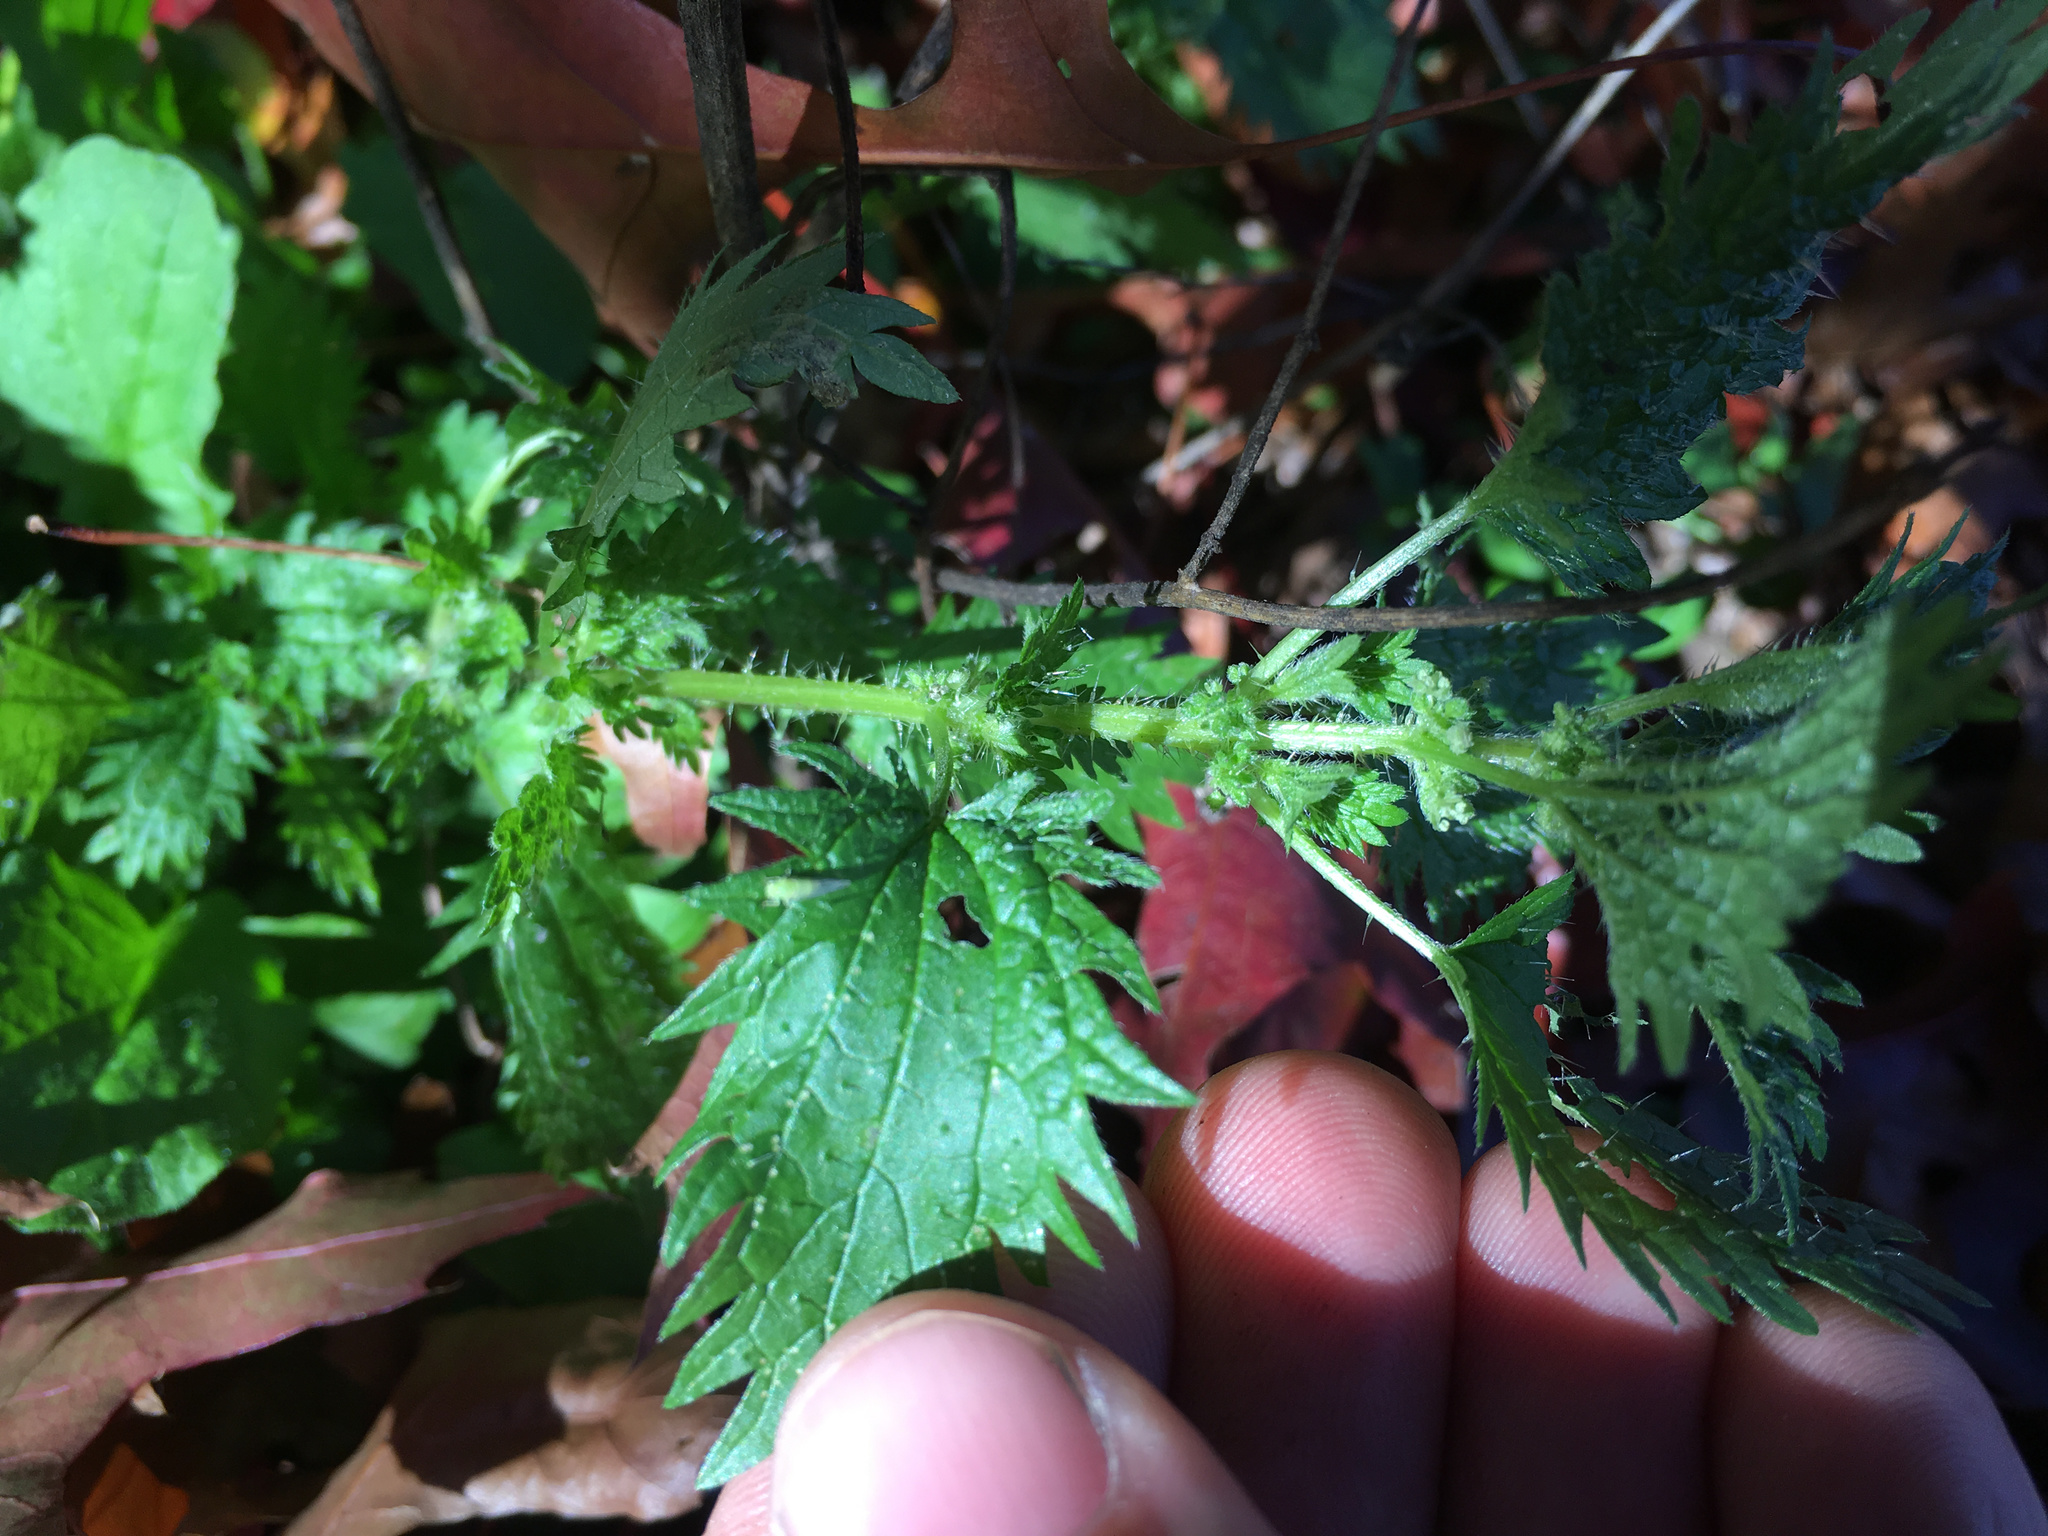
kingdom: Plantae
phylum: Tracheophyta
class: Magnoliopsida
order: Rosales
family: Urticaceae
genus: Urtica
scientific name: Urtica urens
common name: Dwarf nettle
